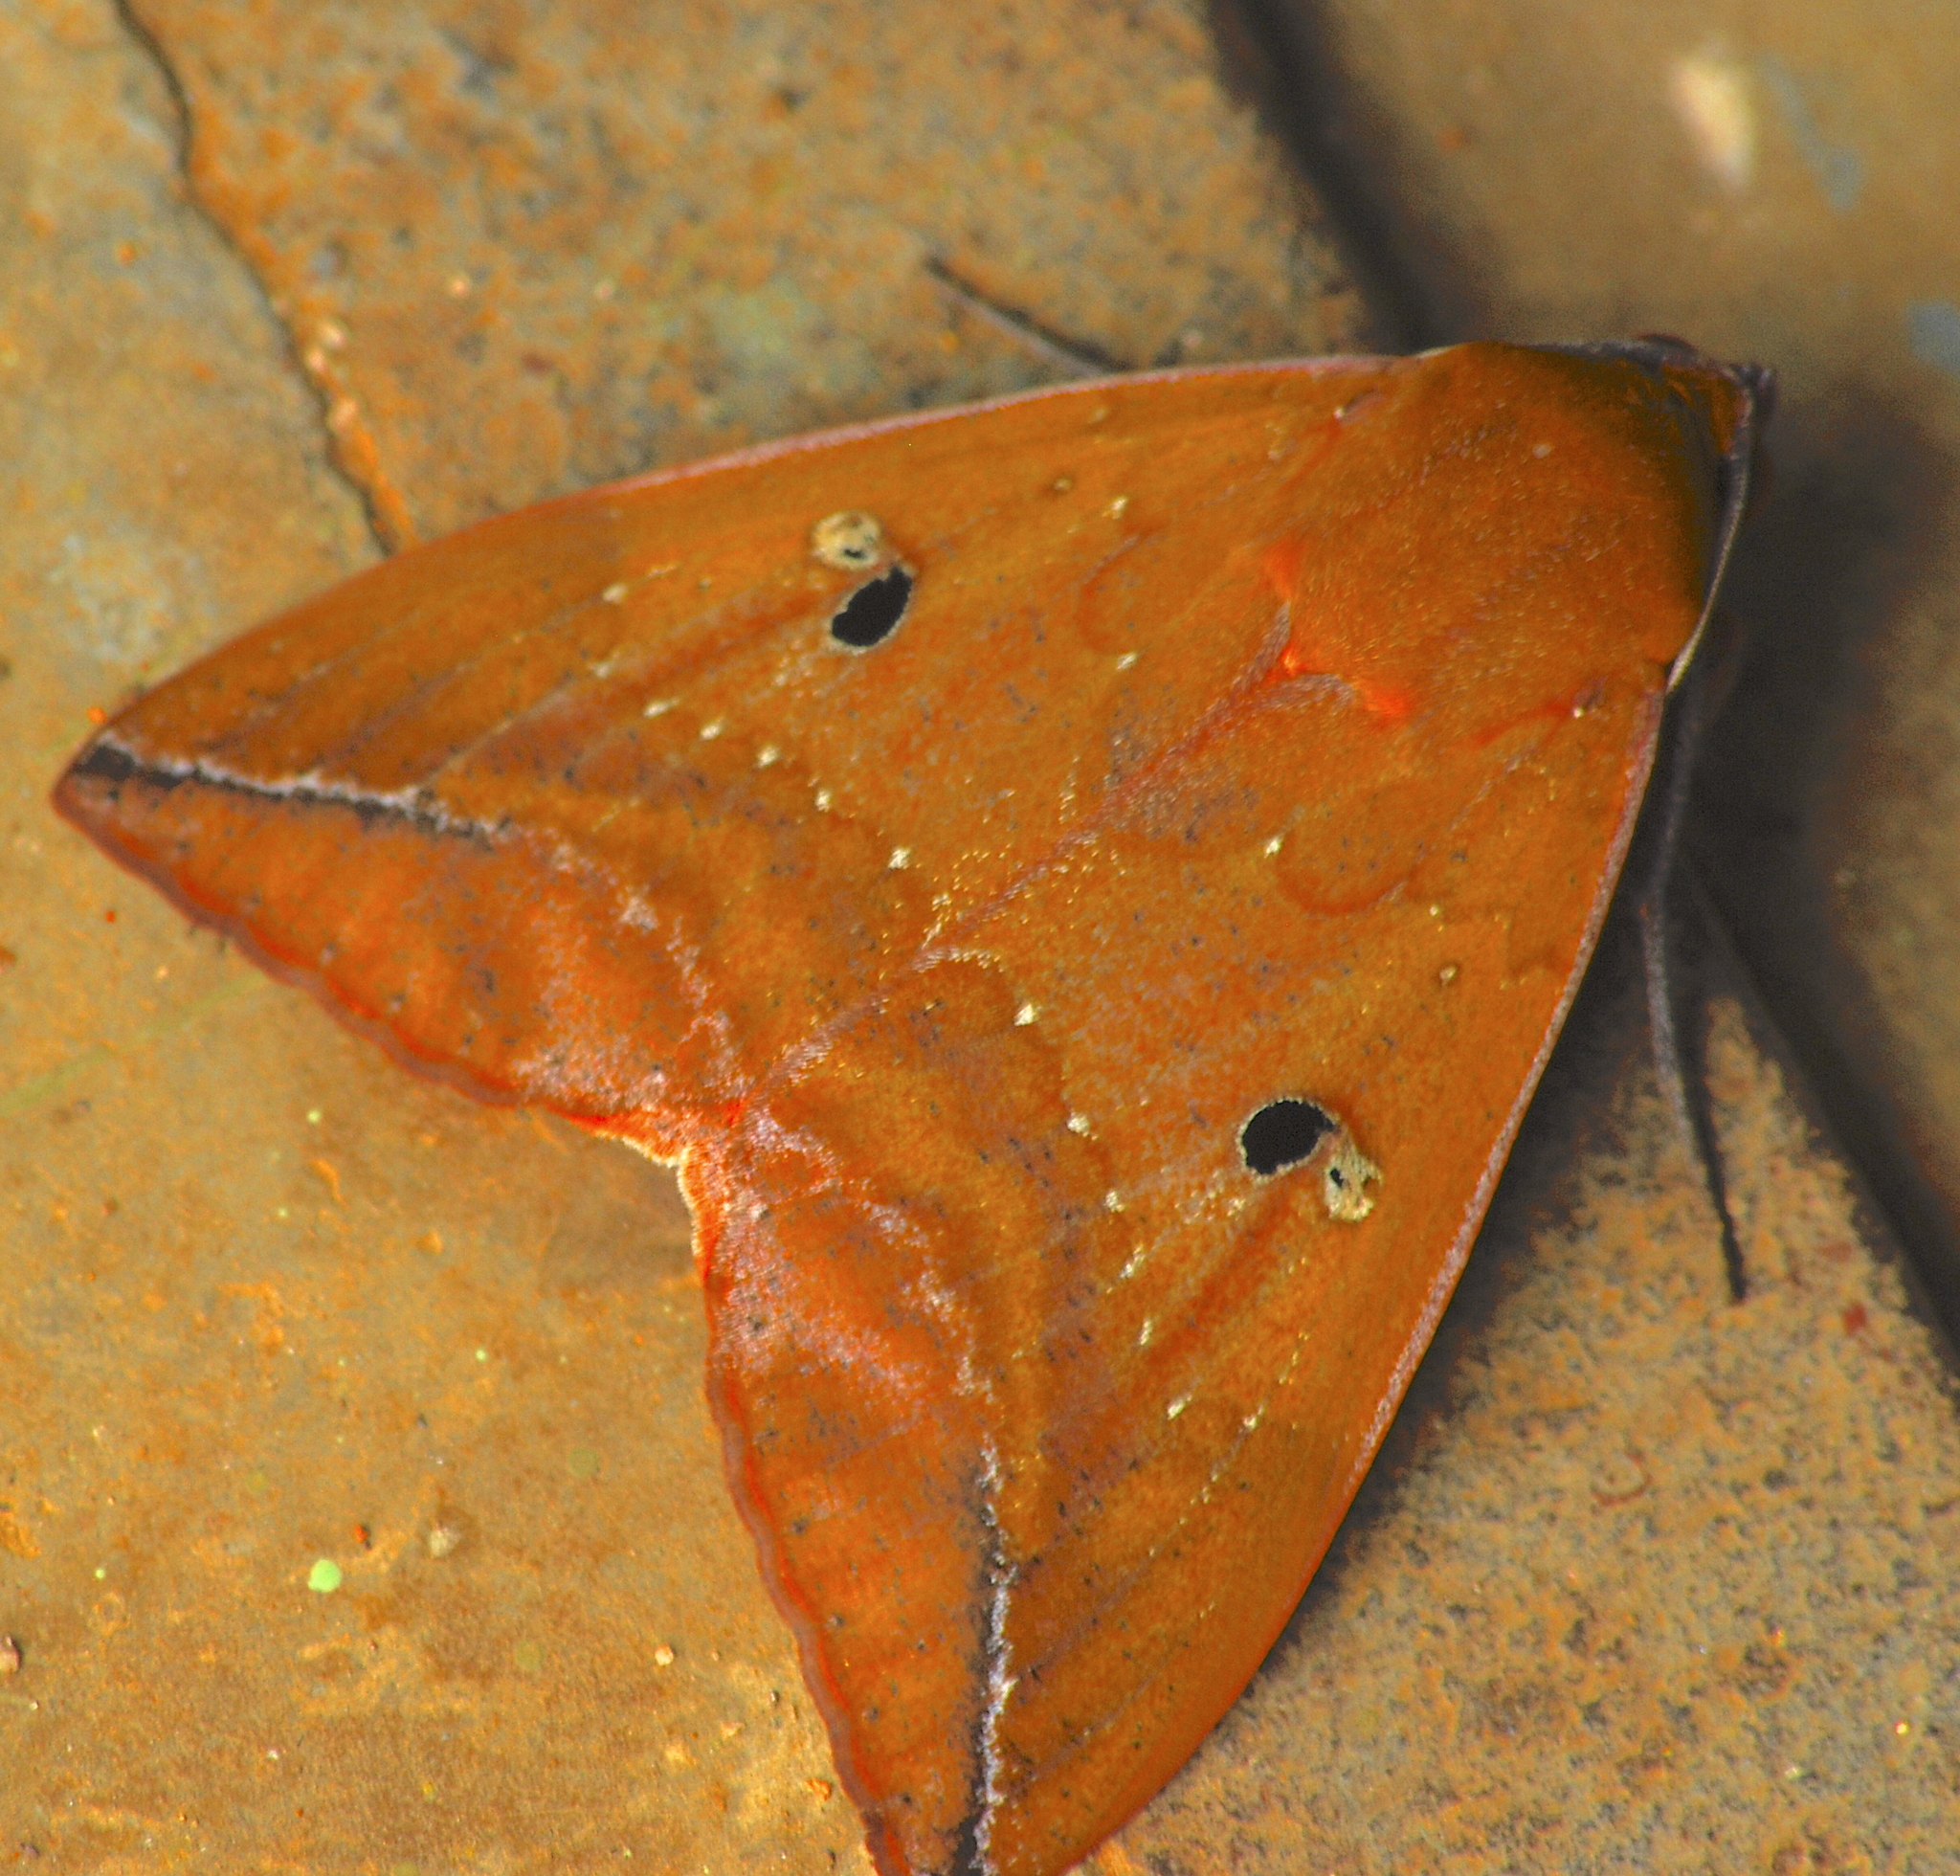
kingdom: Animalia
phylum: Arthropoda
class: Insecta
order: Lepidoptera
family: Erebidae
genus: Thyas
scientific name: Thyas honesta
